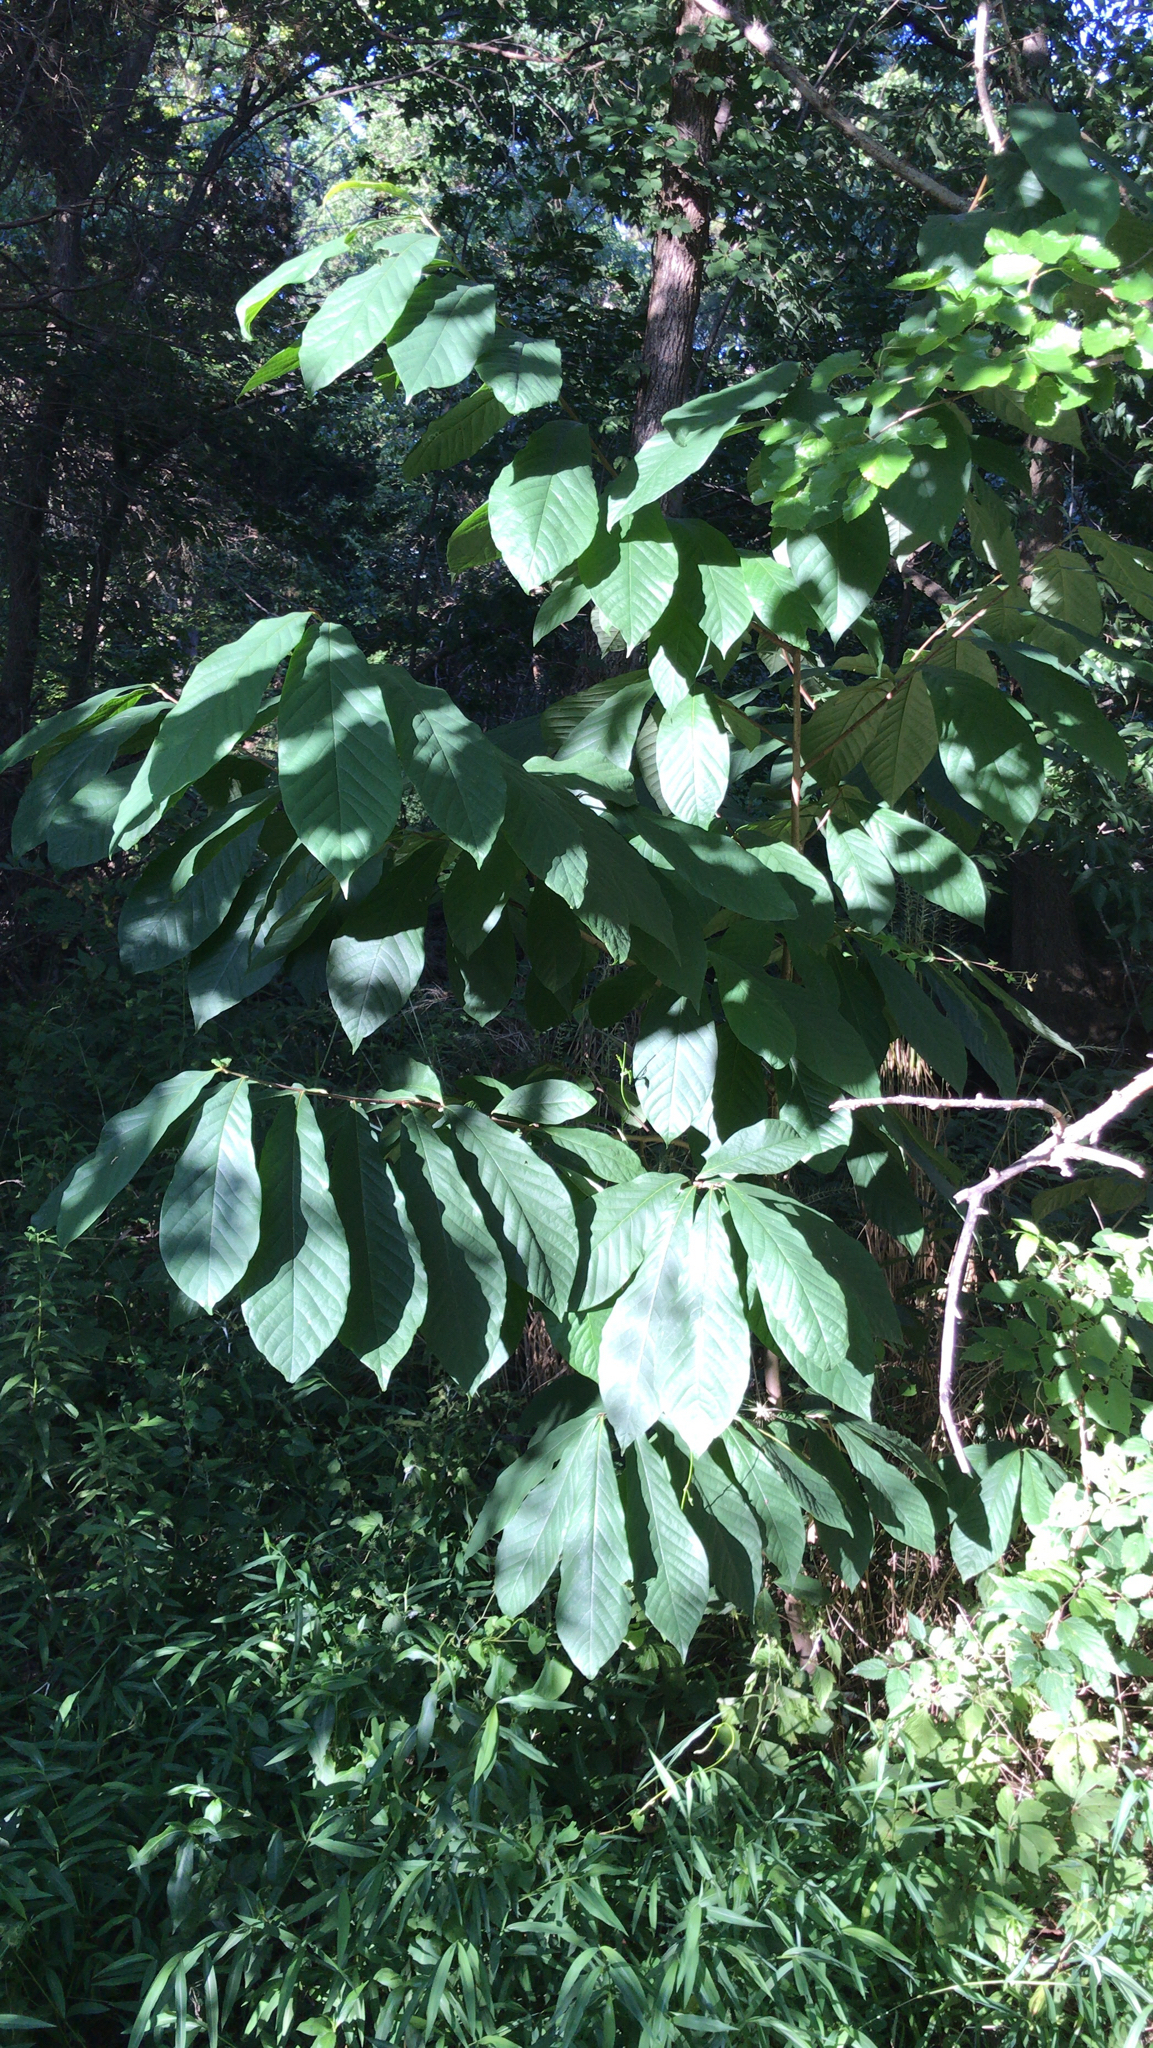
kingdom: Plantae
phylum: Tracheophyta
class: Magnoliopsida
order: Magnoliales
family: Annonaceae
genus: Asimina
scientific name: Asimina triloba
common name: Dog-banana
